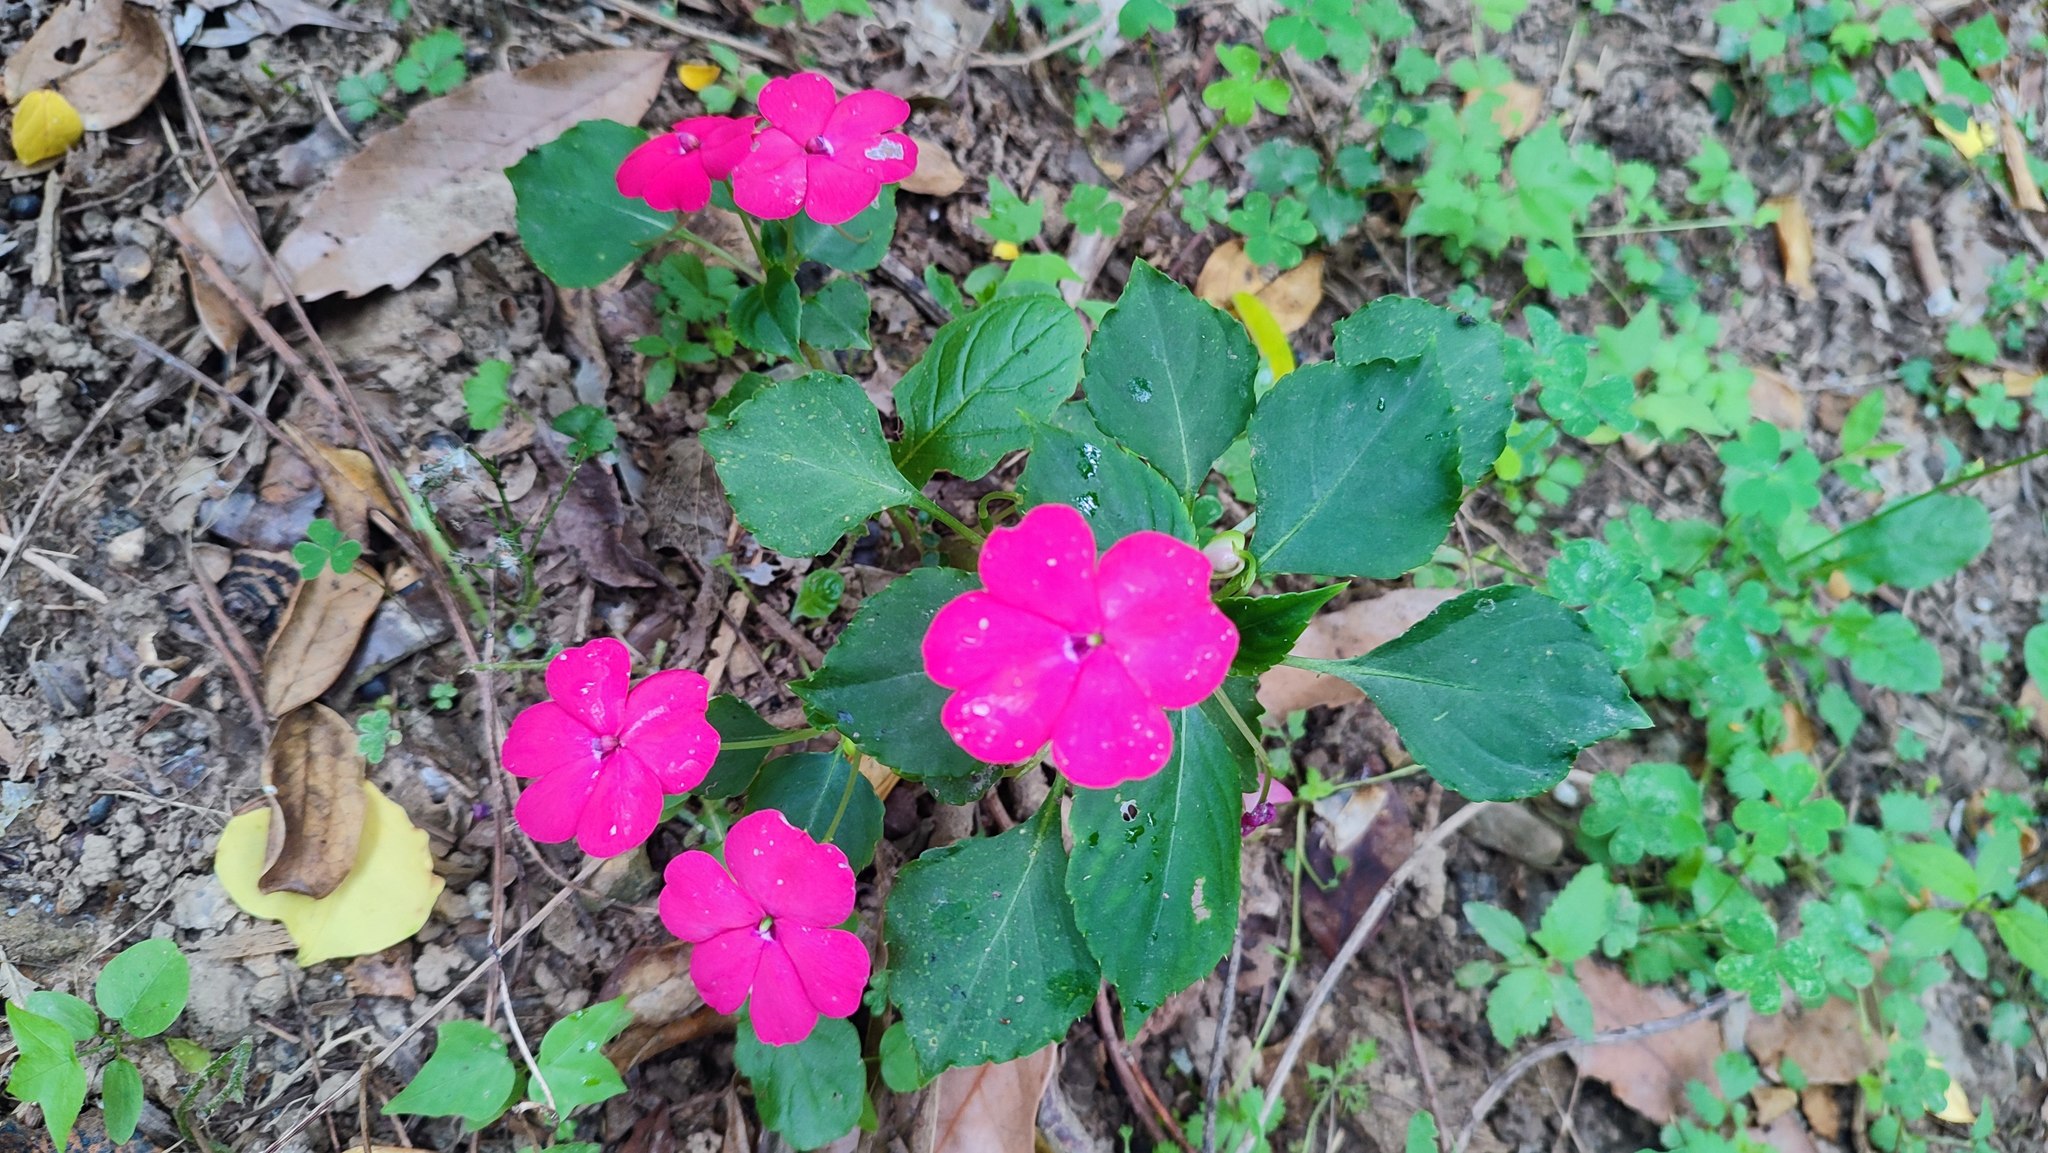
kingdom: Plantae
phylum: Tracheophyta
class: Magnoliopsida
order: Ericales
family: Balsaminaceae
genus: Impatiens
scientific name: Impatiens walleriana
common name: Buzzy lizzy
